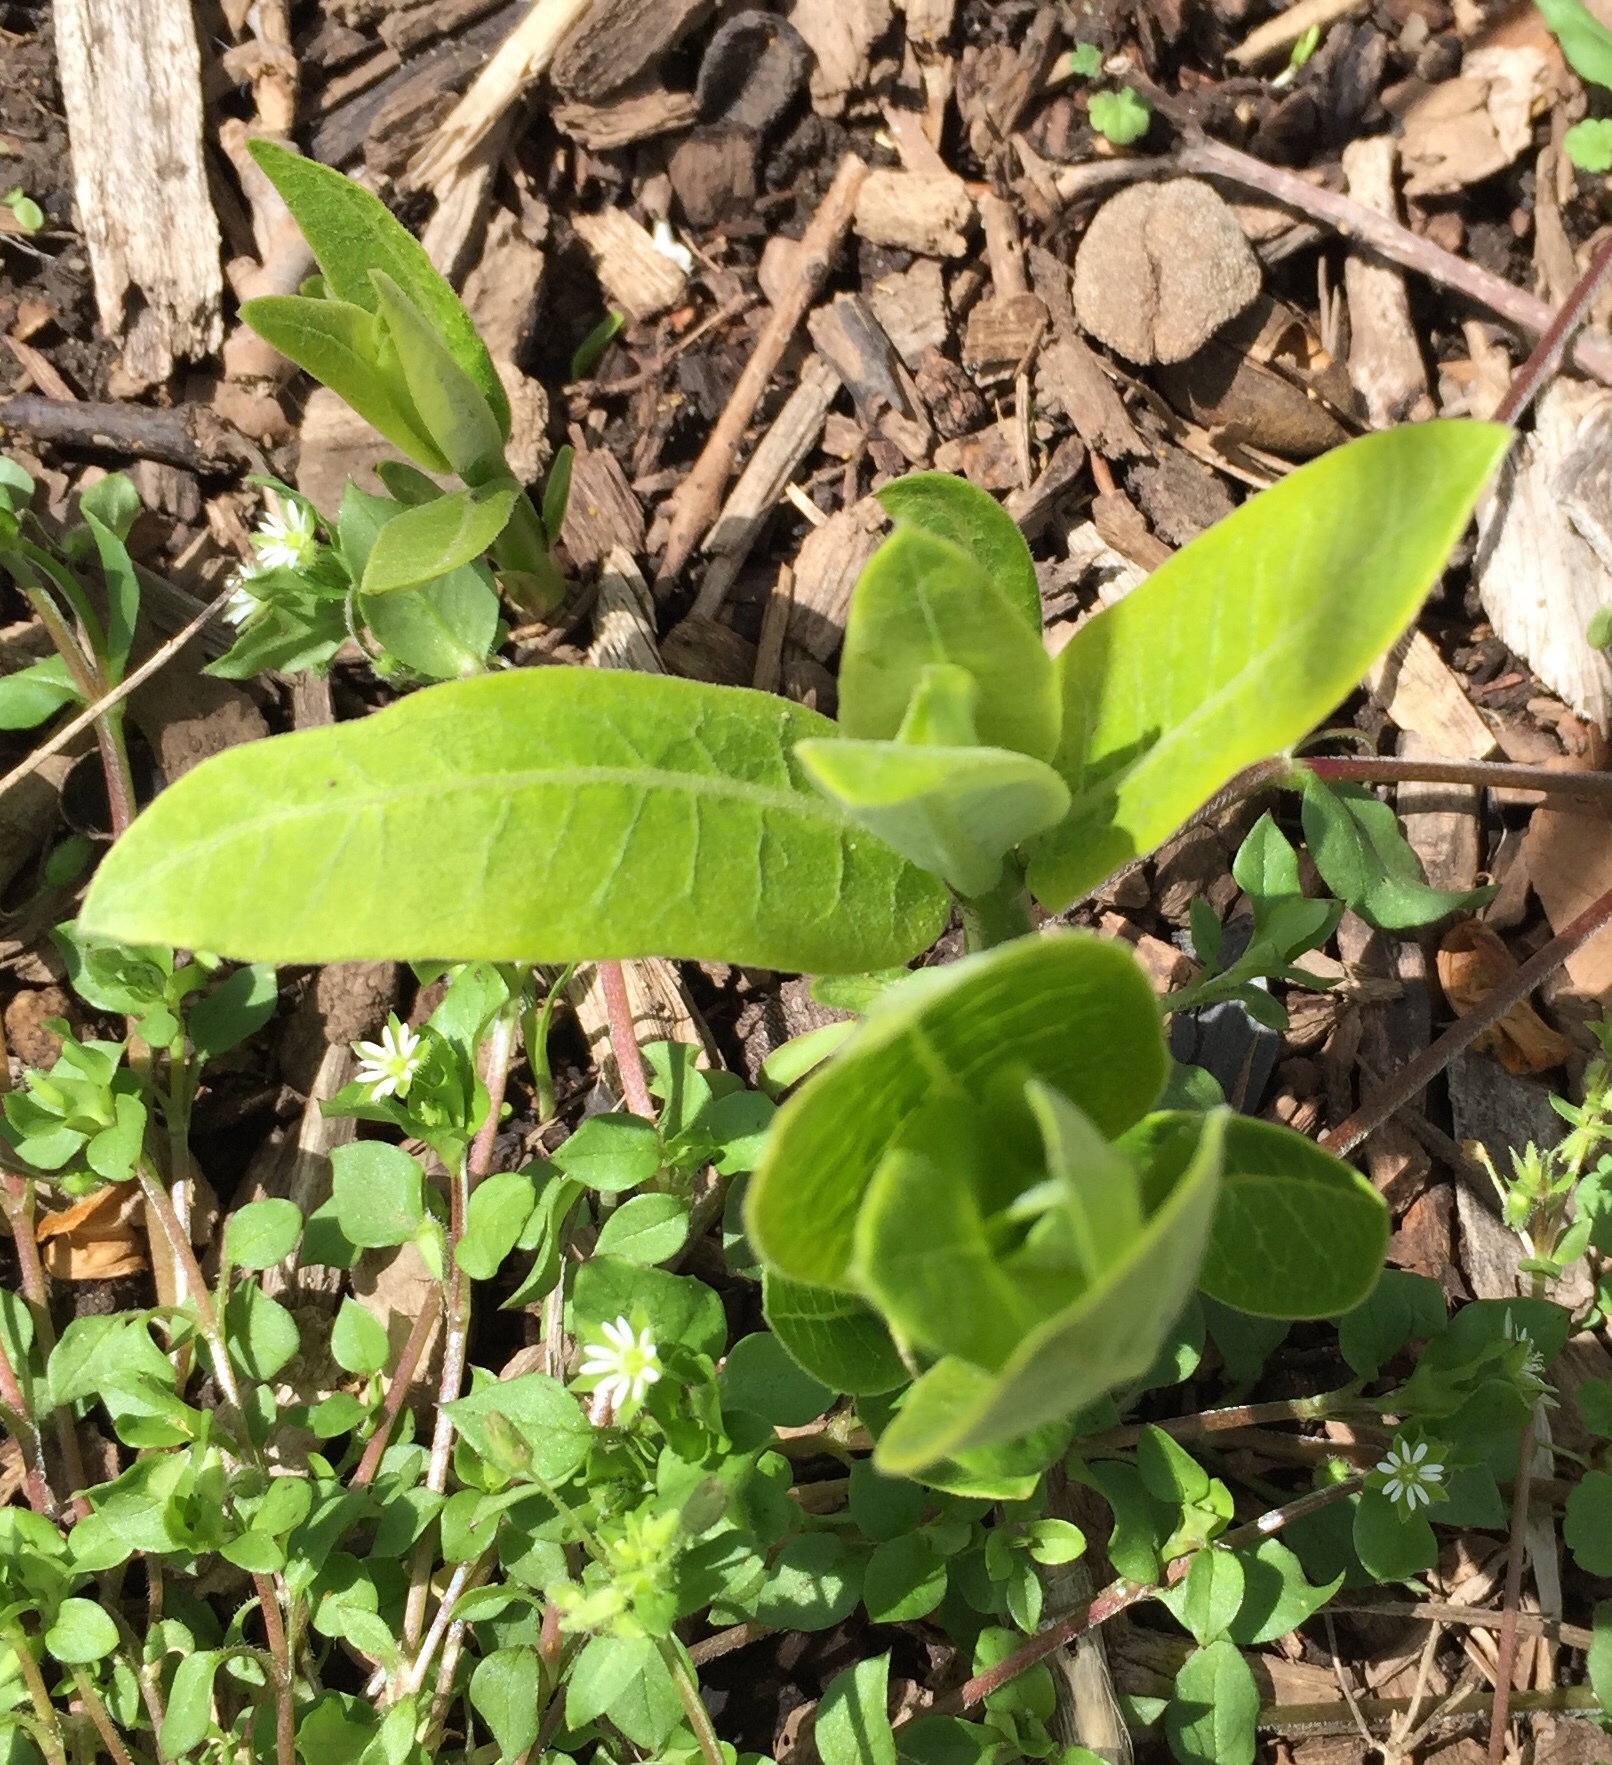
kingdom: Plantae
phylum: Tracheophyta
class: Magnoliopsida
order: Gentianales
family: Apocynaceae
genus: Asclepias
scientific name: Asclepias syriaca
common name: Common milkweed
